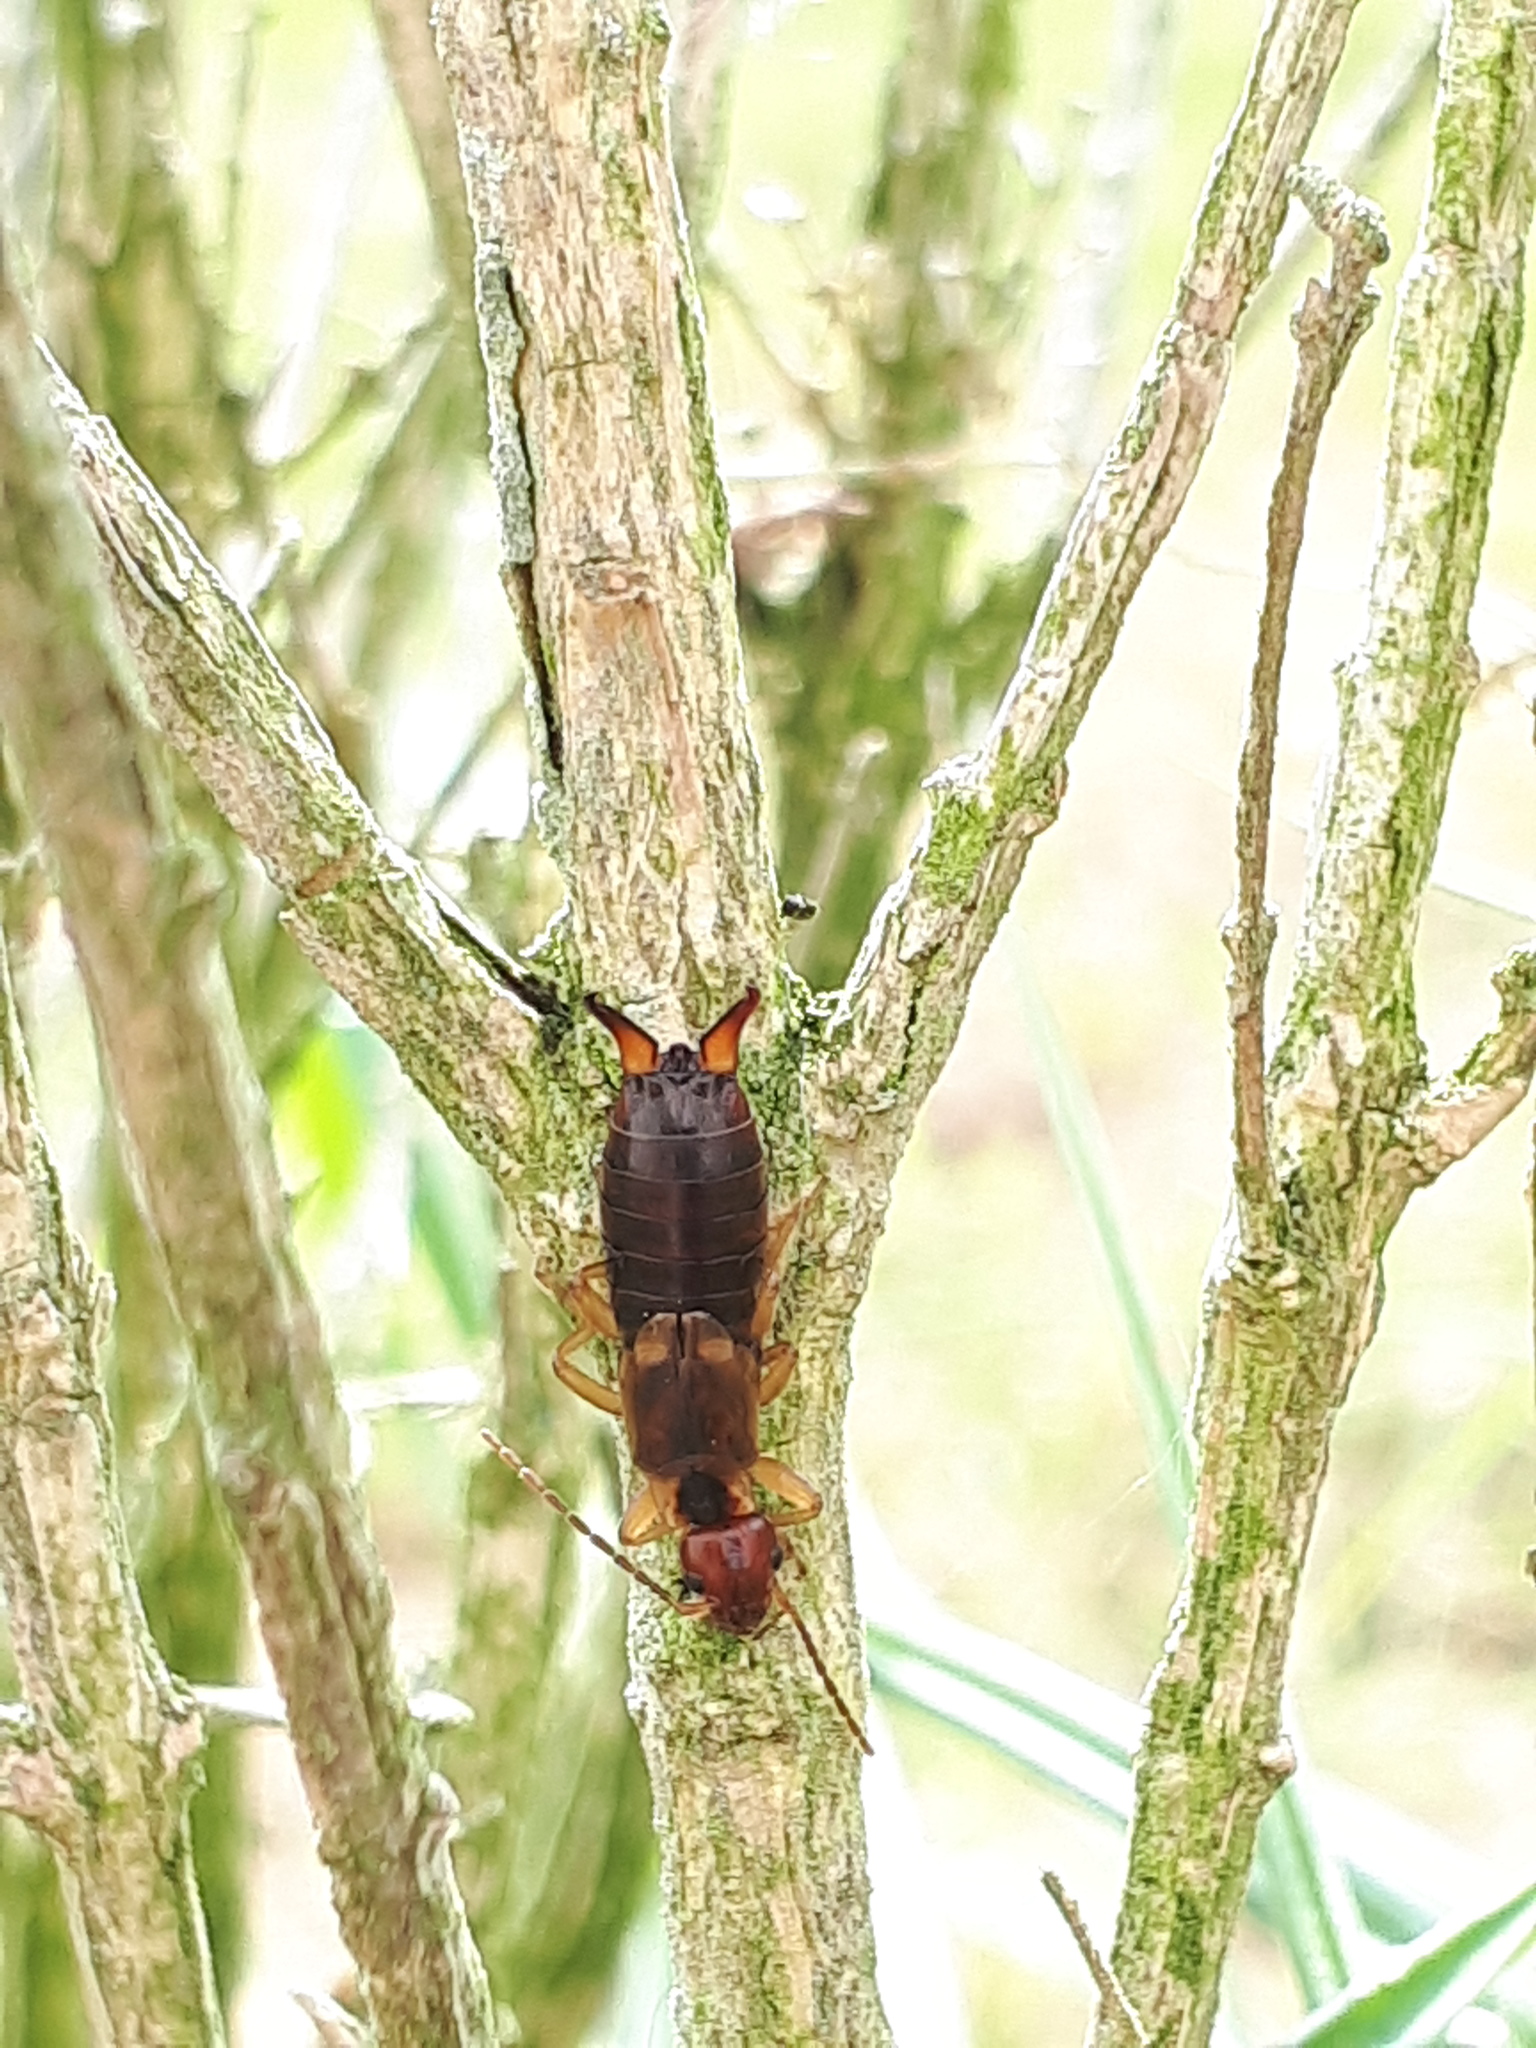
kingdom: Animalia
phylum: Arthropoda
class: Insecta
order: Dermaptera
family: Forficulidae
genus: Forficula
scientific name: Forficula
